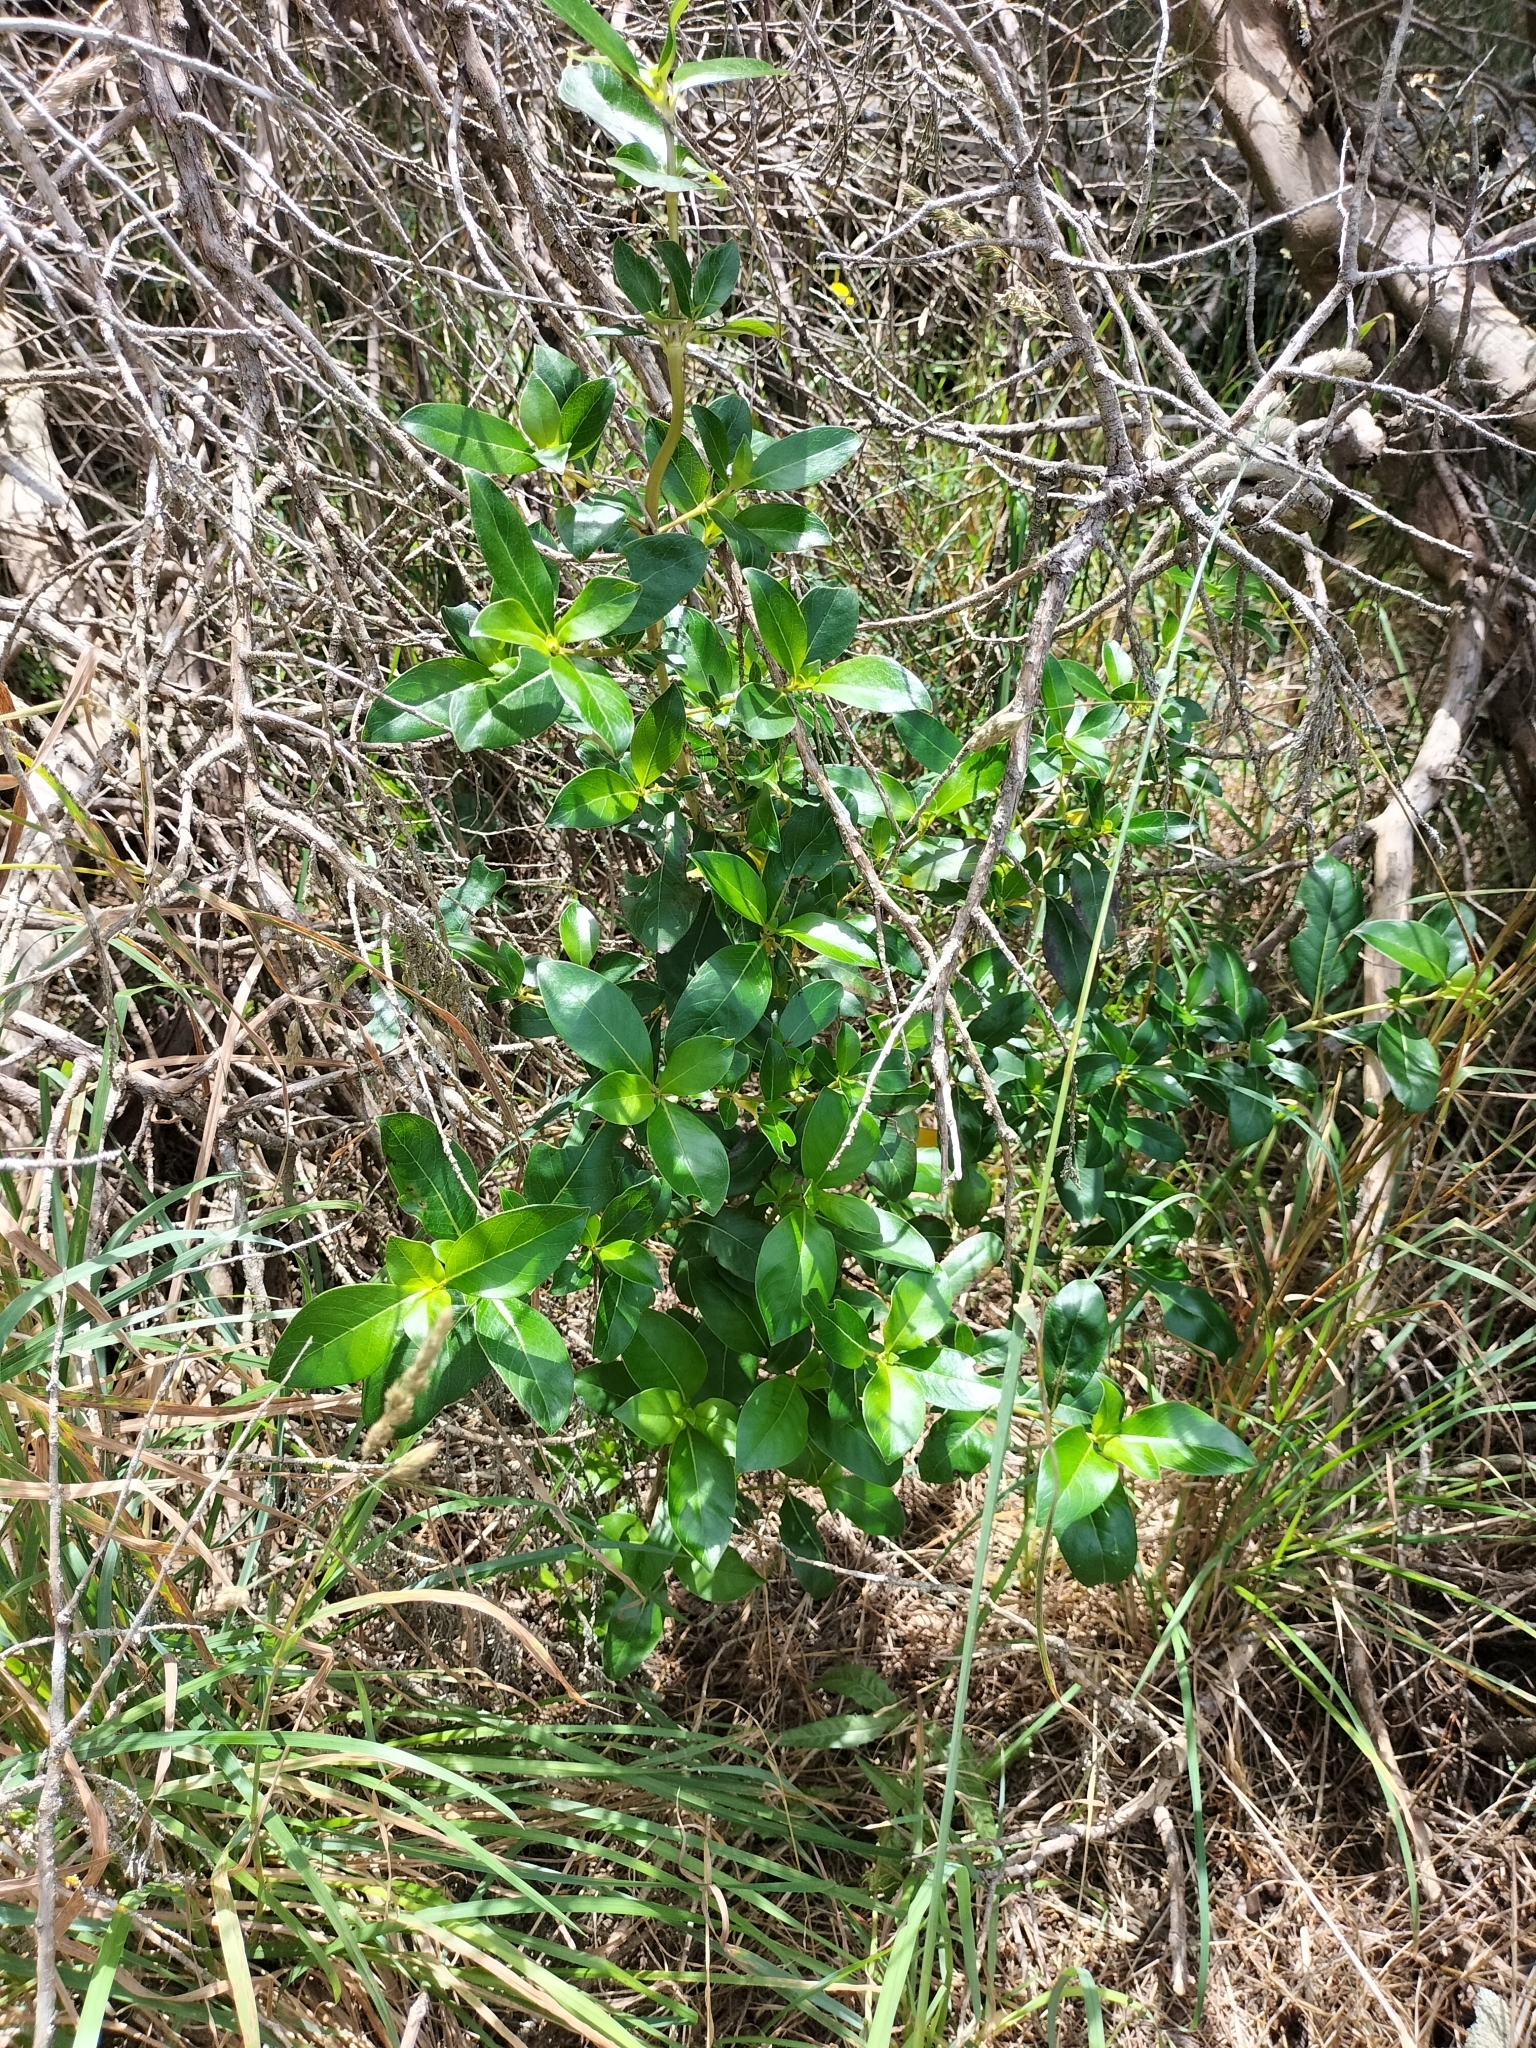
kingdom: Plantae
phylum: Tracheophyta
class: Magnoliopsida
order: Gentianales
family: Rubiaceae
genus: Coprosma
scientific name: Coprosma robusta
